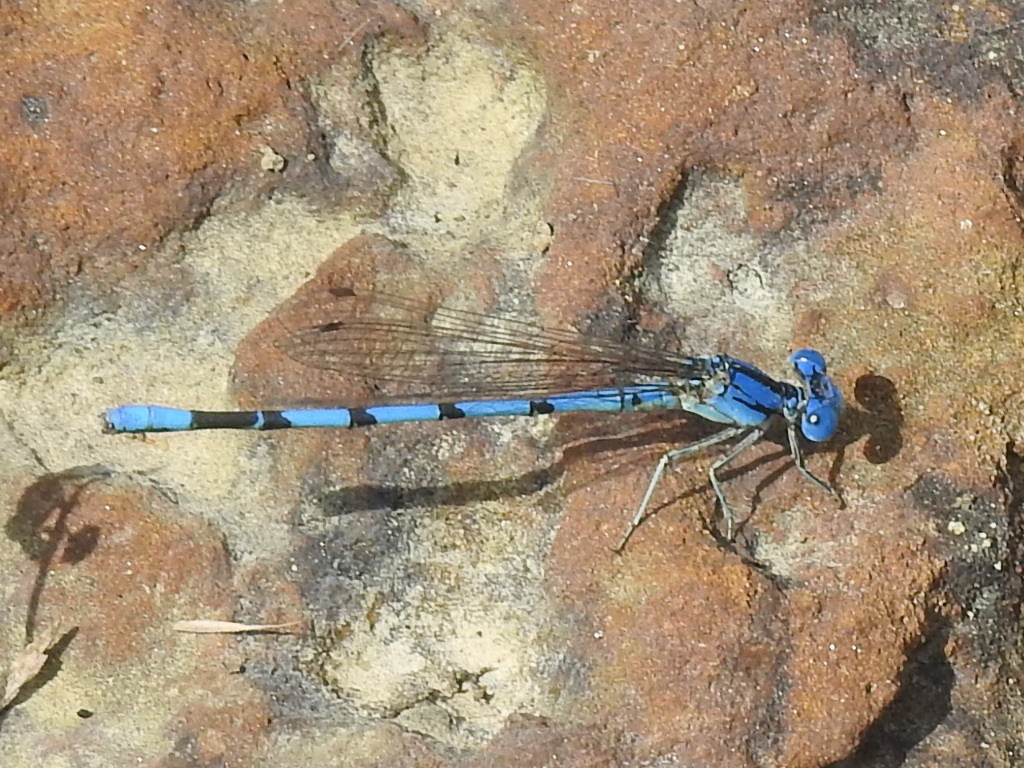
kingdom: Animalia
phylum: Arthropoda
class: Insecta
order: Odonata
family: Coenagrionidae
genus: Argia
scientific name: Argia nahuana
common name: Aztec dancer
